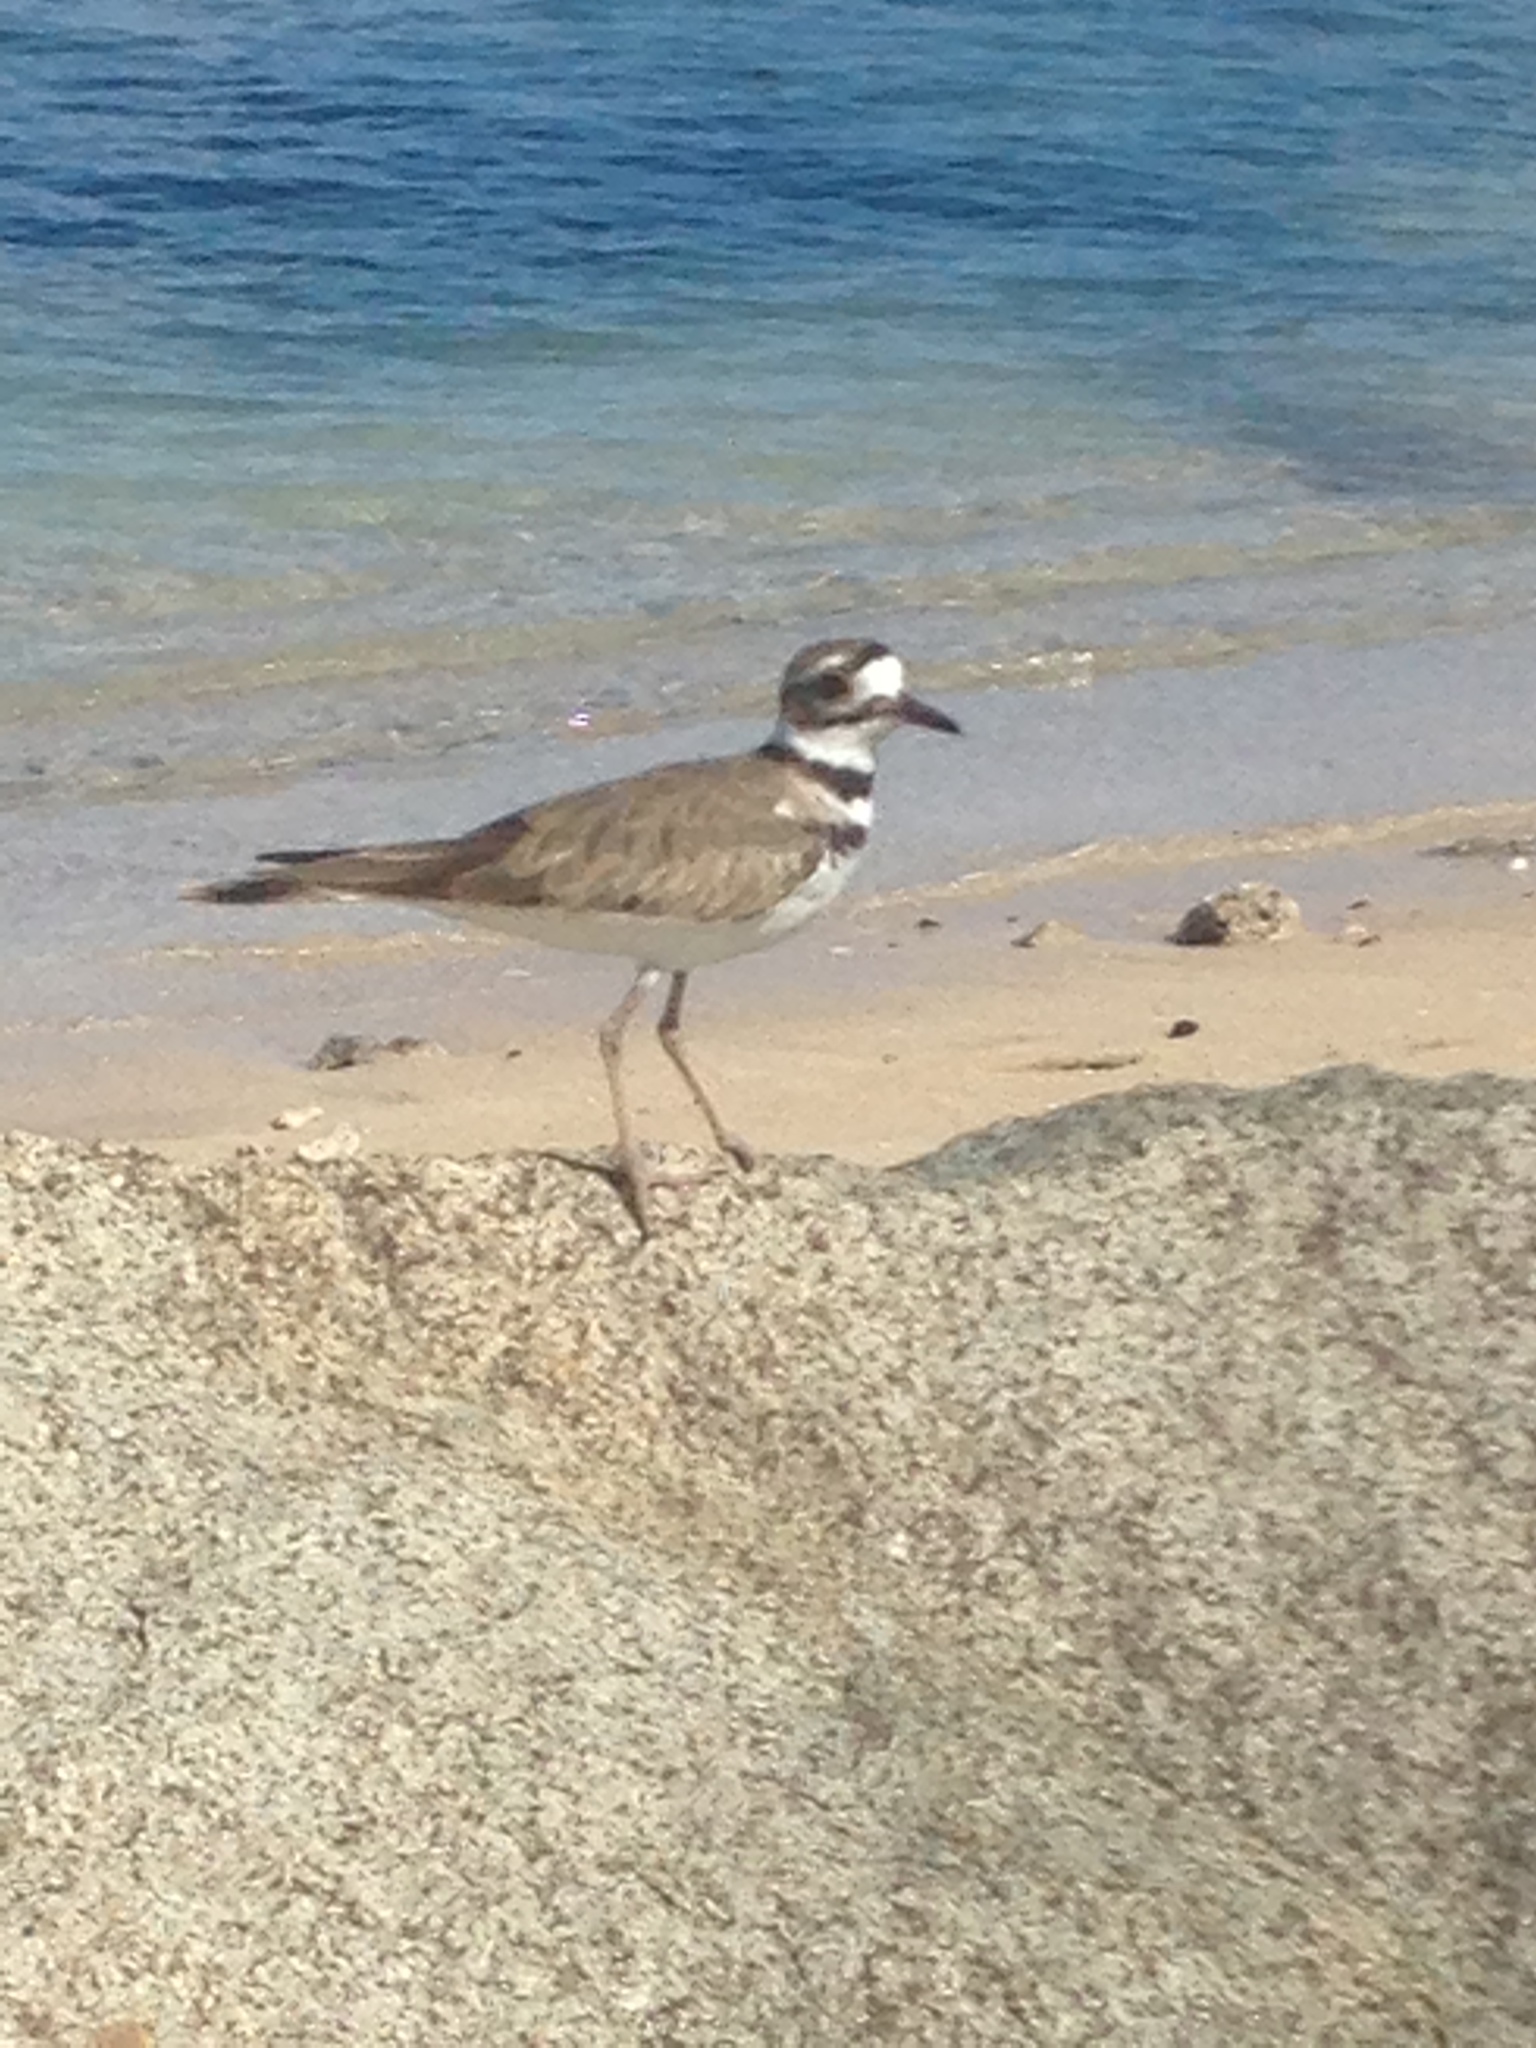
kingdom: Animalia
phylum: Chordata
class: Aves
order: Charadriiformes
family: Charadriidae
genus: Charadrius
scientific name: Charadrius vociferus
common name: Killdeer
